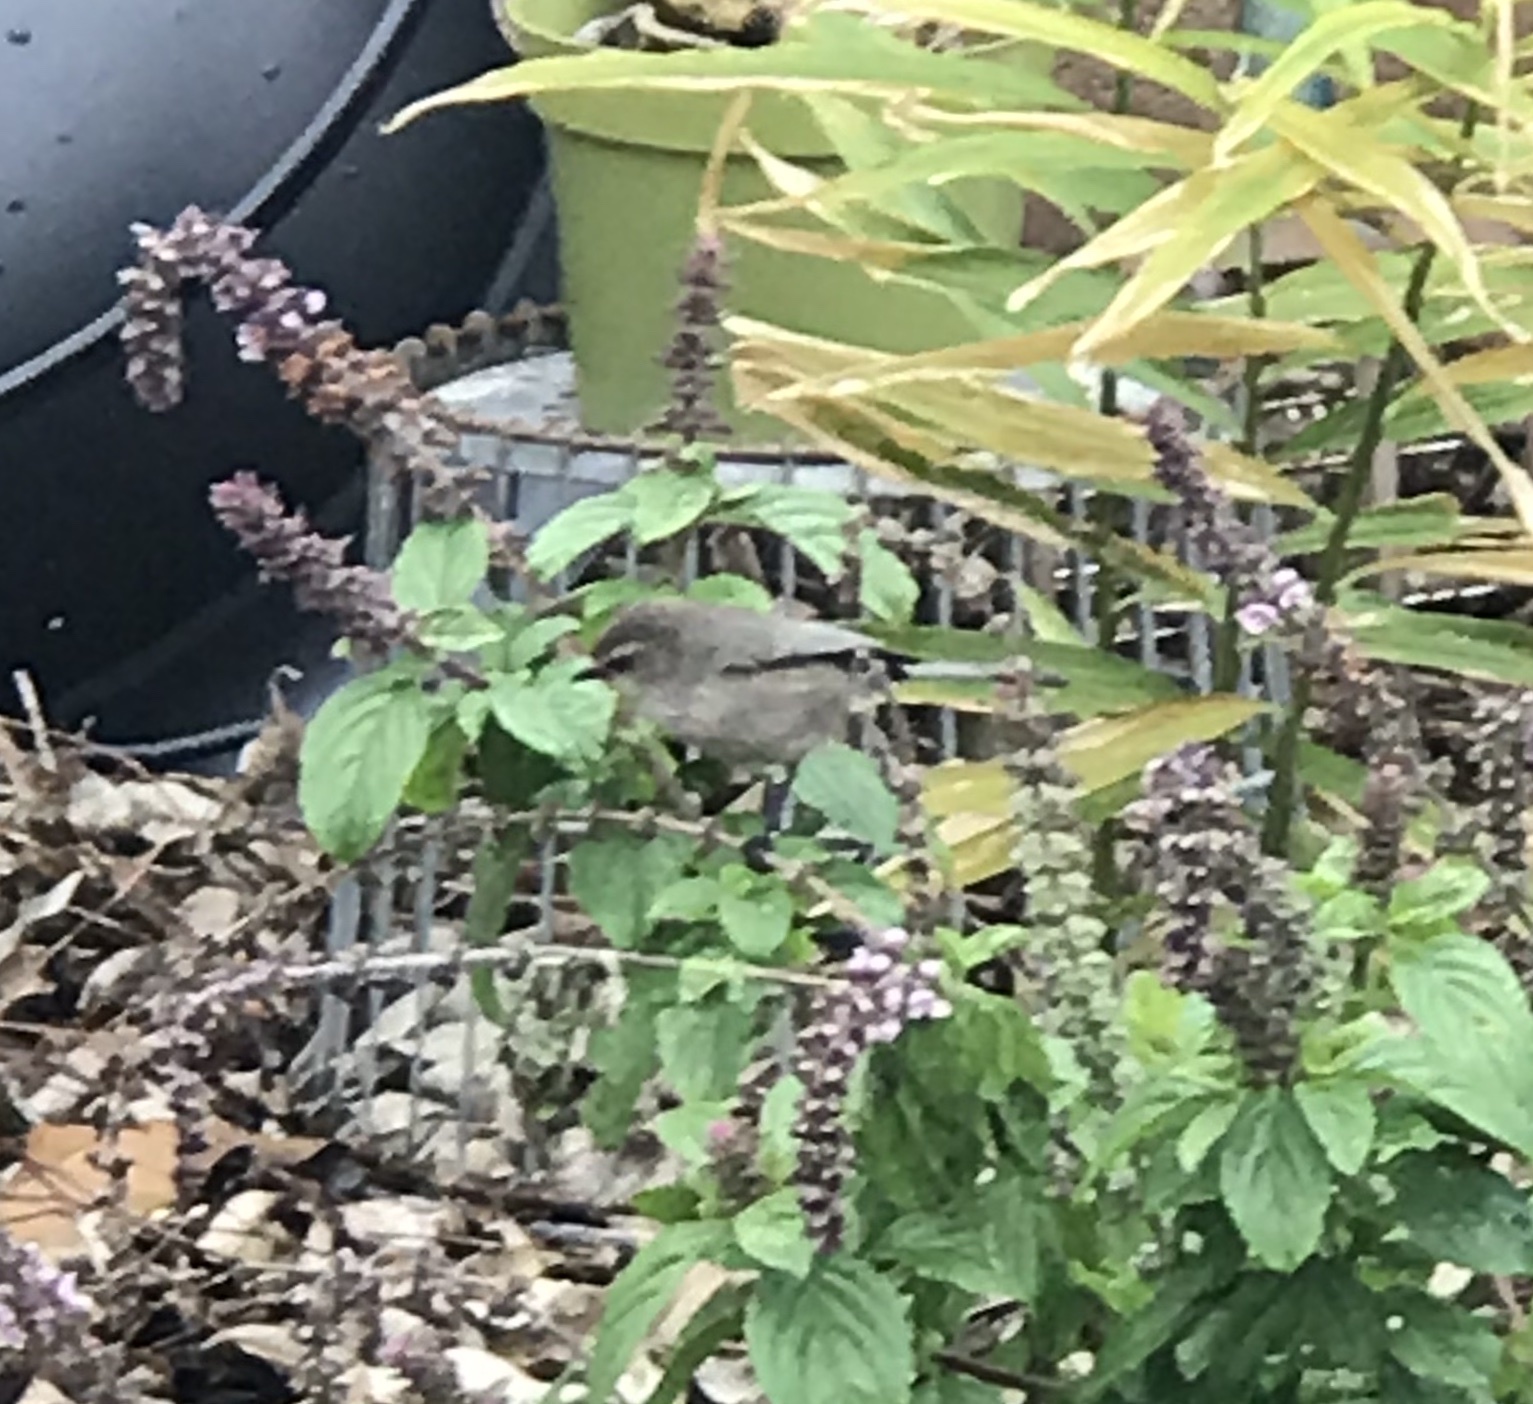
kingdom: Animalia
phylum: Chordata
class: Aves
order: Passeriformes
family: Aegithalidae
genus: Psaltriparus
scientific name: Psaltriparus minimus
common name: American bushtit
